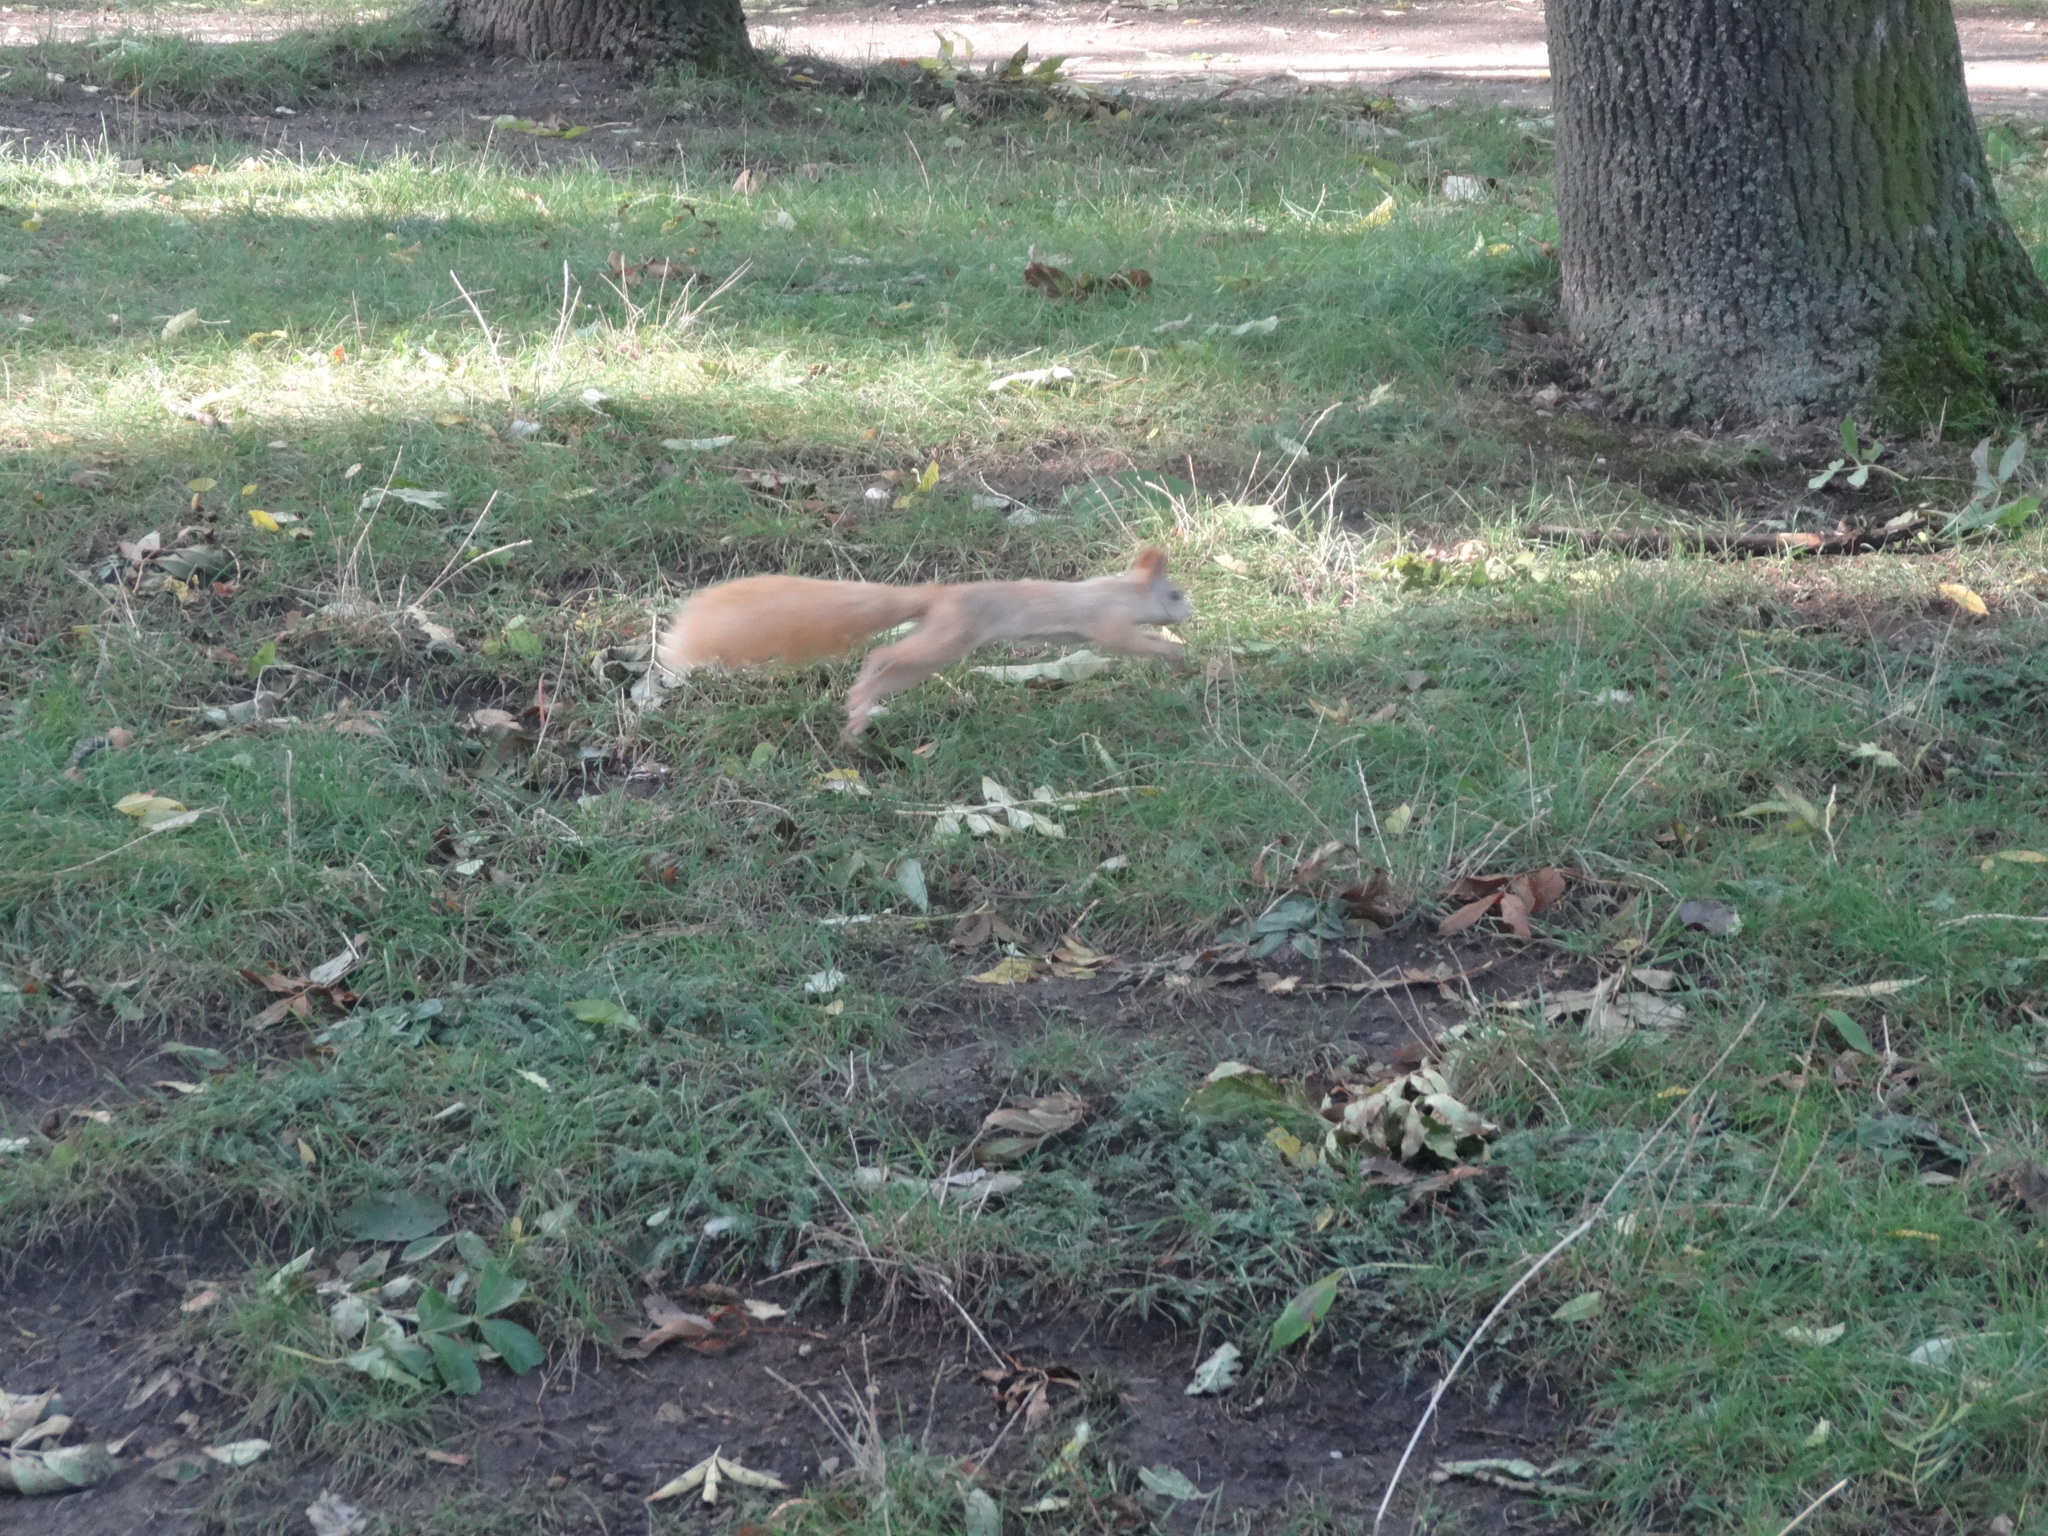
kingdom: Animalia
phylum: Chordata
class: Mammalia
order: Rodentia
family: Sciuridae
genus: Sciurus
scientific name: Sciurus vulgaris
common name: Eurasian red squirrel
